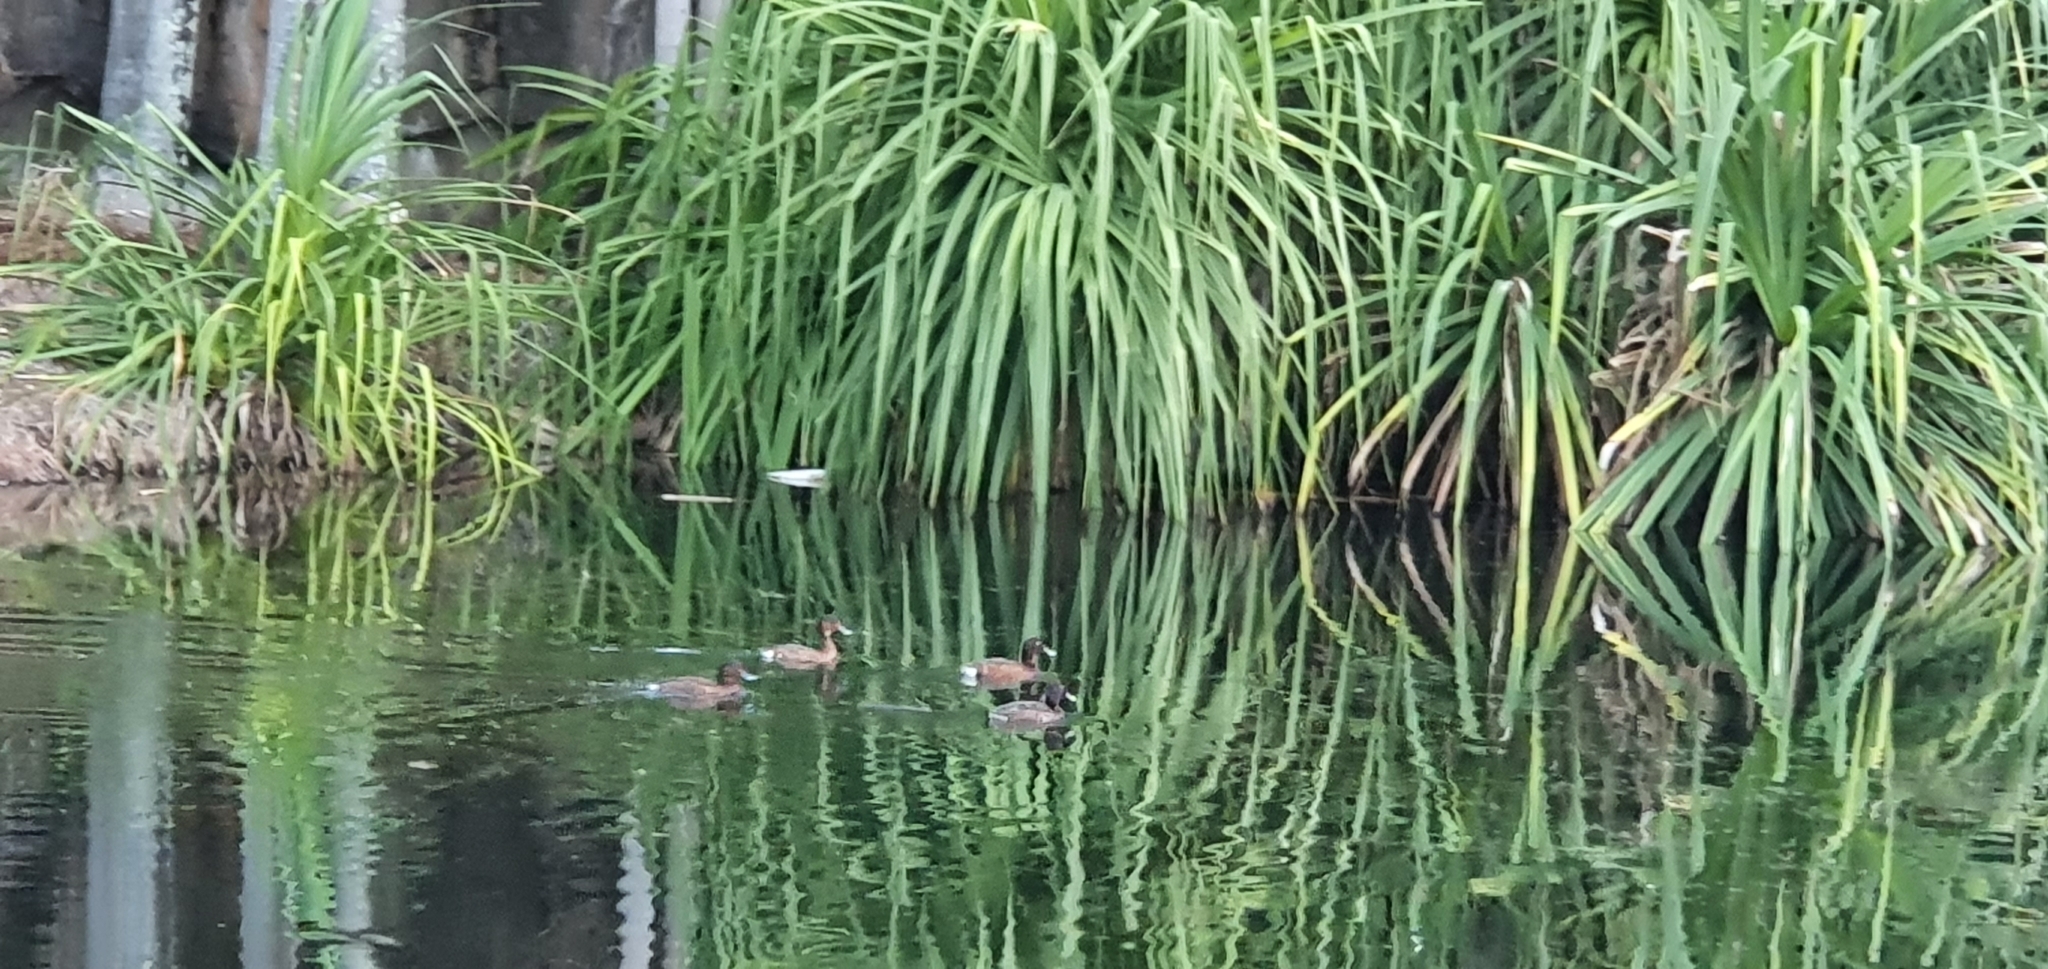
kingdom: Animalia
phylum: Chordata
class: Aves
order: Anseriformes
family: Anatidae
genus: Aythya
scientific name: Aythya australis
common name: Hardhead
